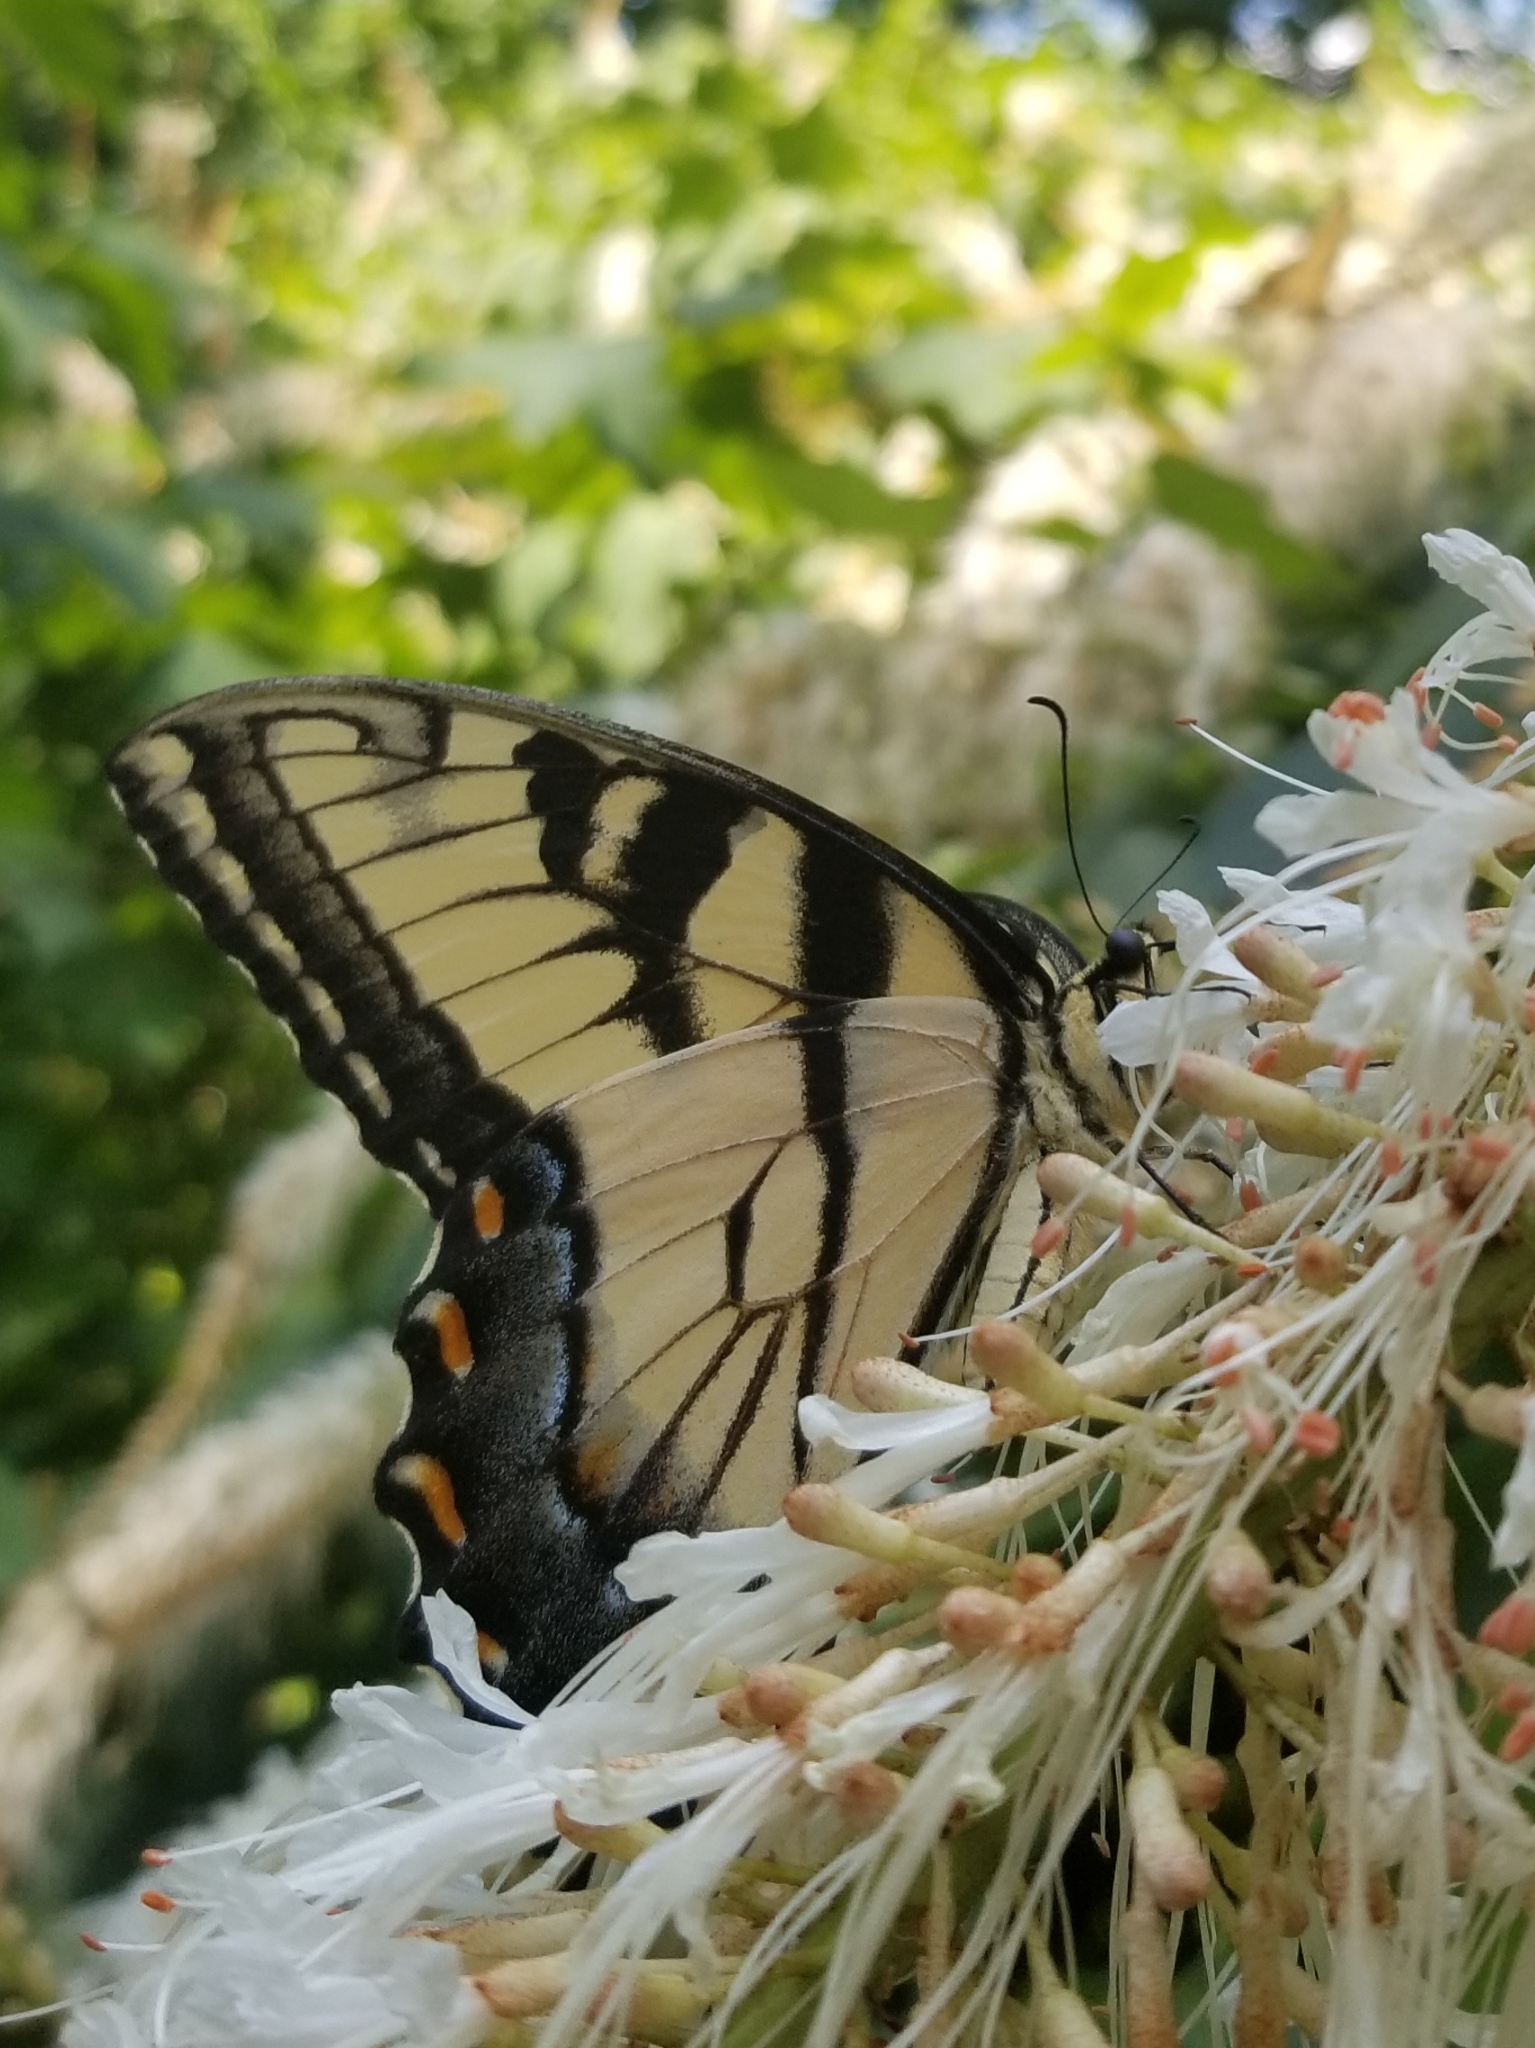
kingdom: Animalia
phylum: Arthropoda
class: Insecta
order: Lepidoptera
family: Papilionidae
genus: Papilio
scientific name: Papilio glaucus
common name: Tiger swallowtail
